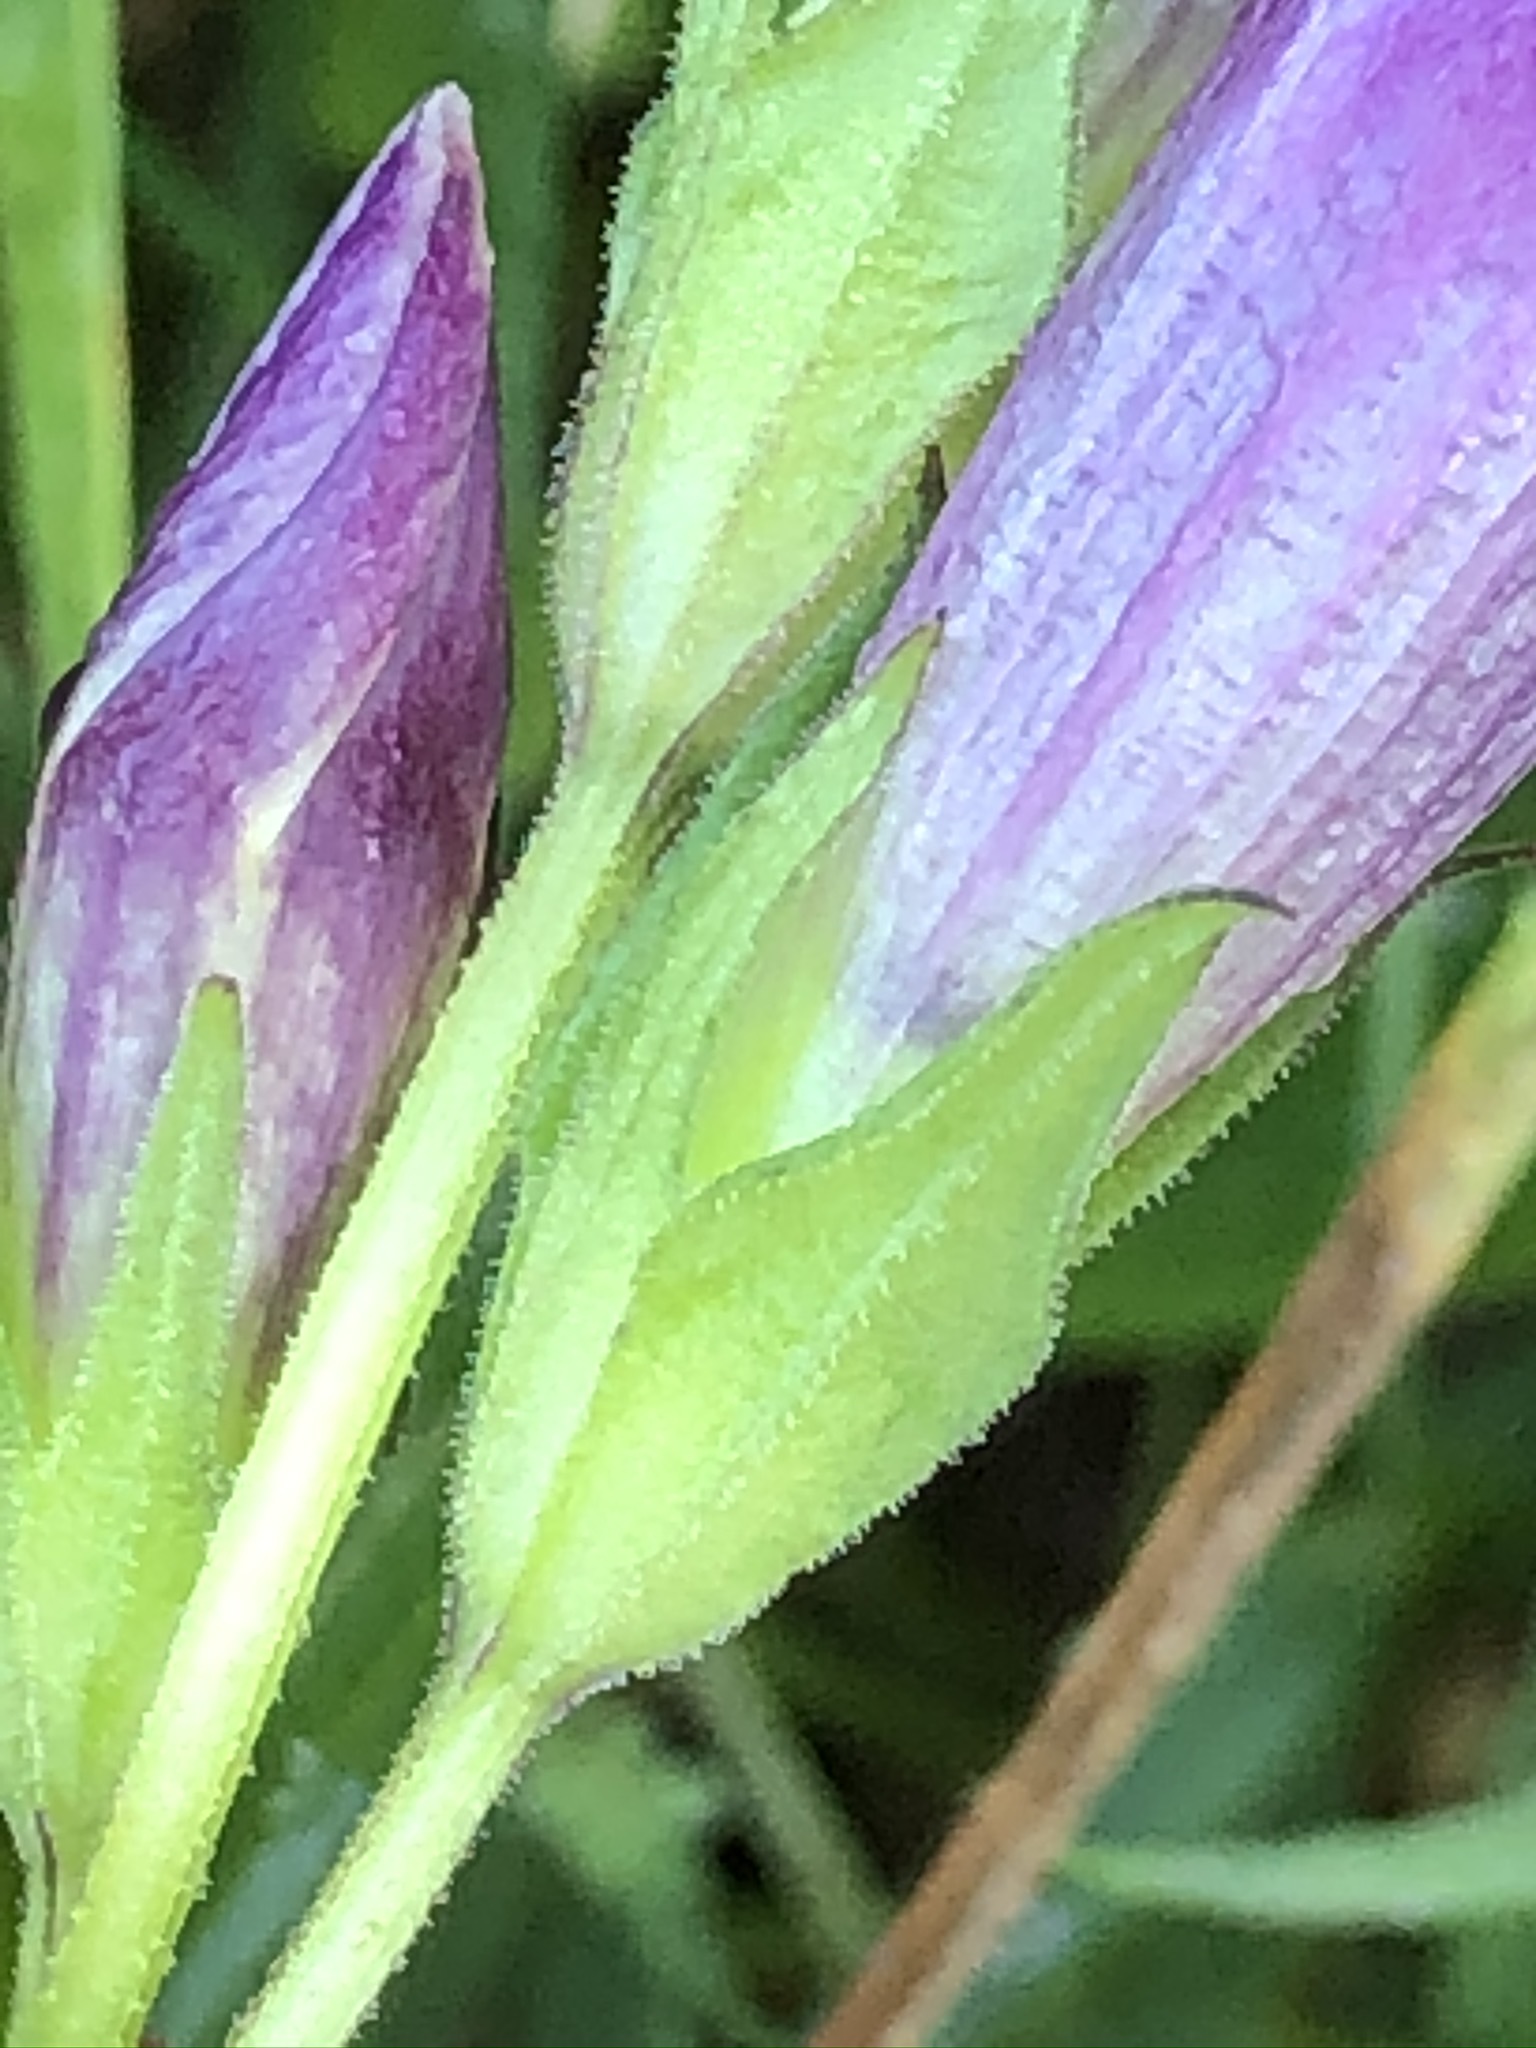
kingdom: Plantae
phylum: Tracheophyta
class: Magnoliopsida
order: Gentianales
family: Gentianaceae
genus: Gentianella
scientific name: Gentianella obtusifolia
